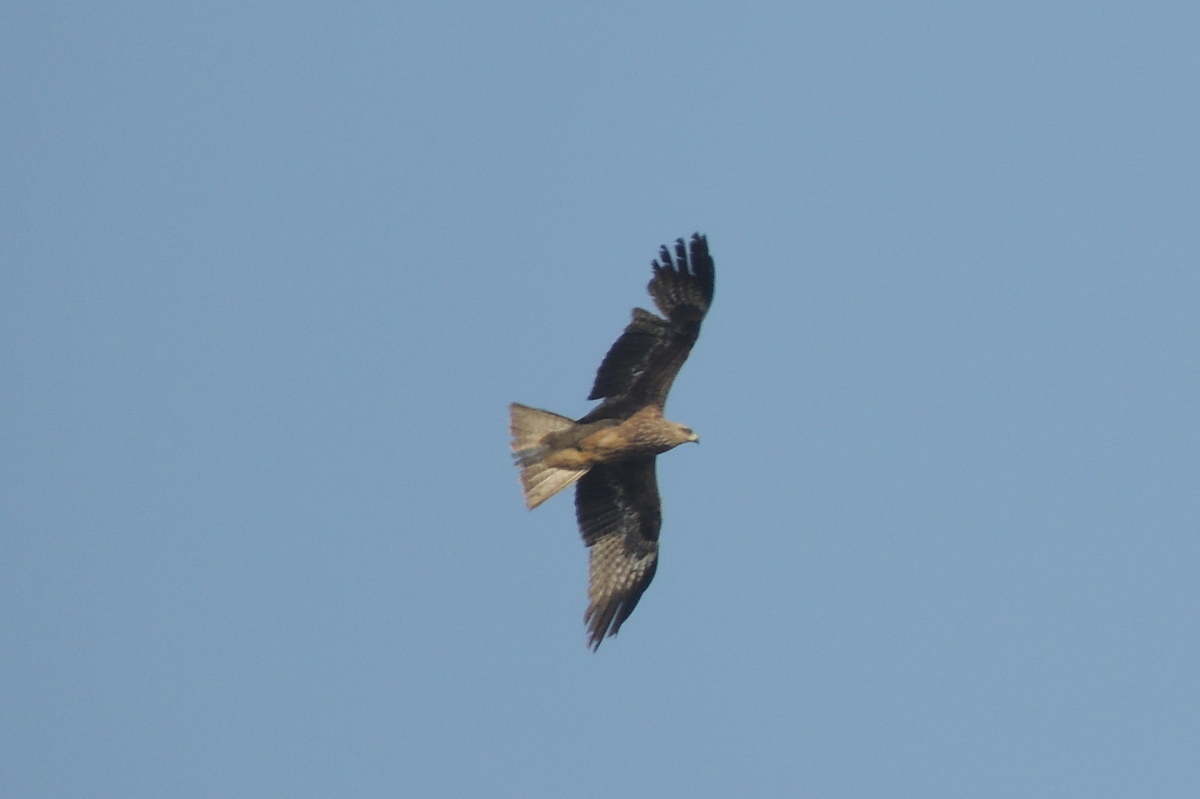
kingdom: Animalia
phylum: Chordata
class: Aves
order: Accipitriformes
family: Accipitridae
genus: Milvus
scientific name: Milvus migrans
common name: Black kite
